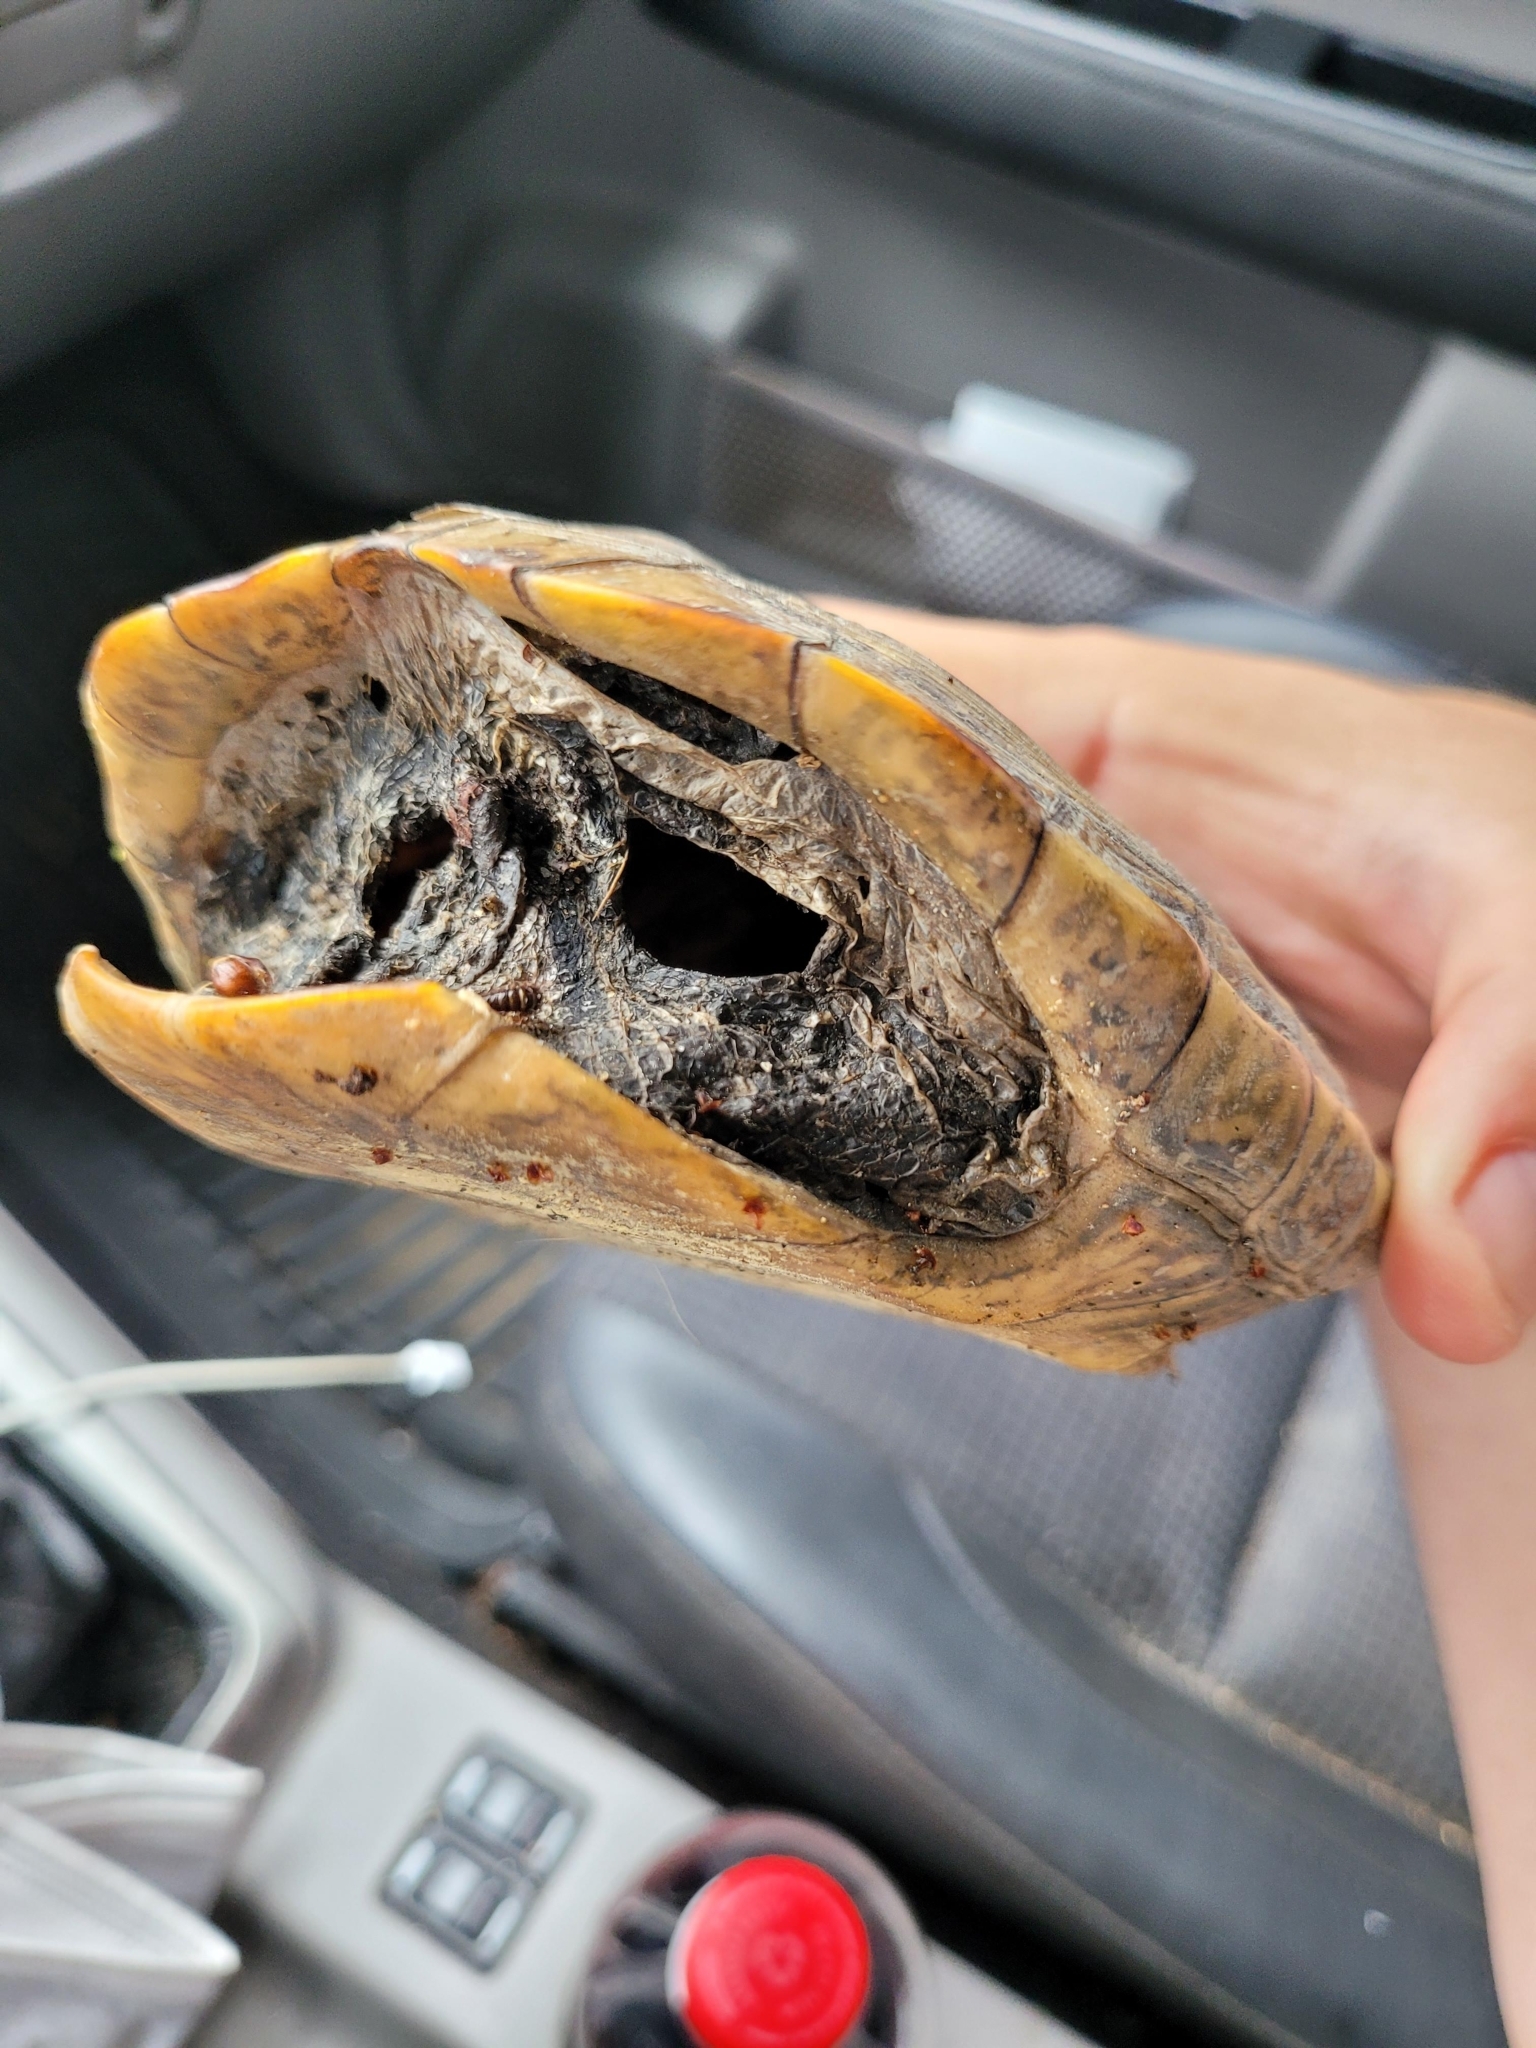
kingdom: Animalia
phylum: Chordata
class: Testudines
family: Emydidae
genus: Malaclemys
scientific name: Malaclemys terrapin
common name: Diamondback terrapin
